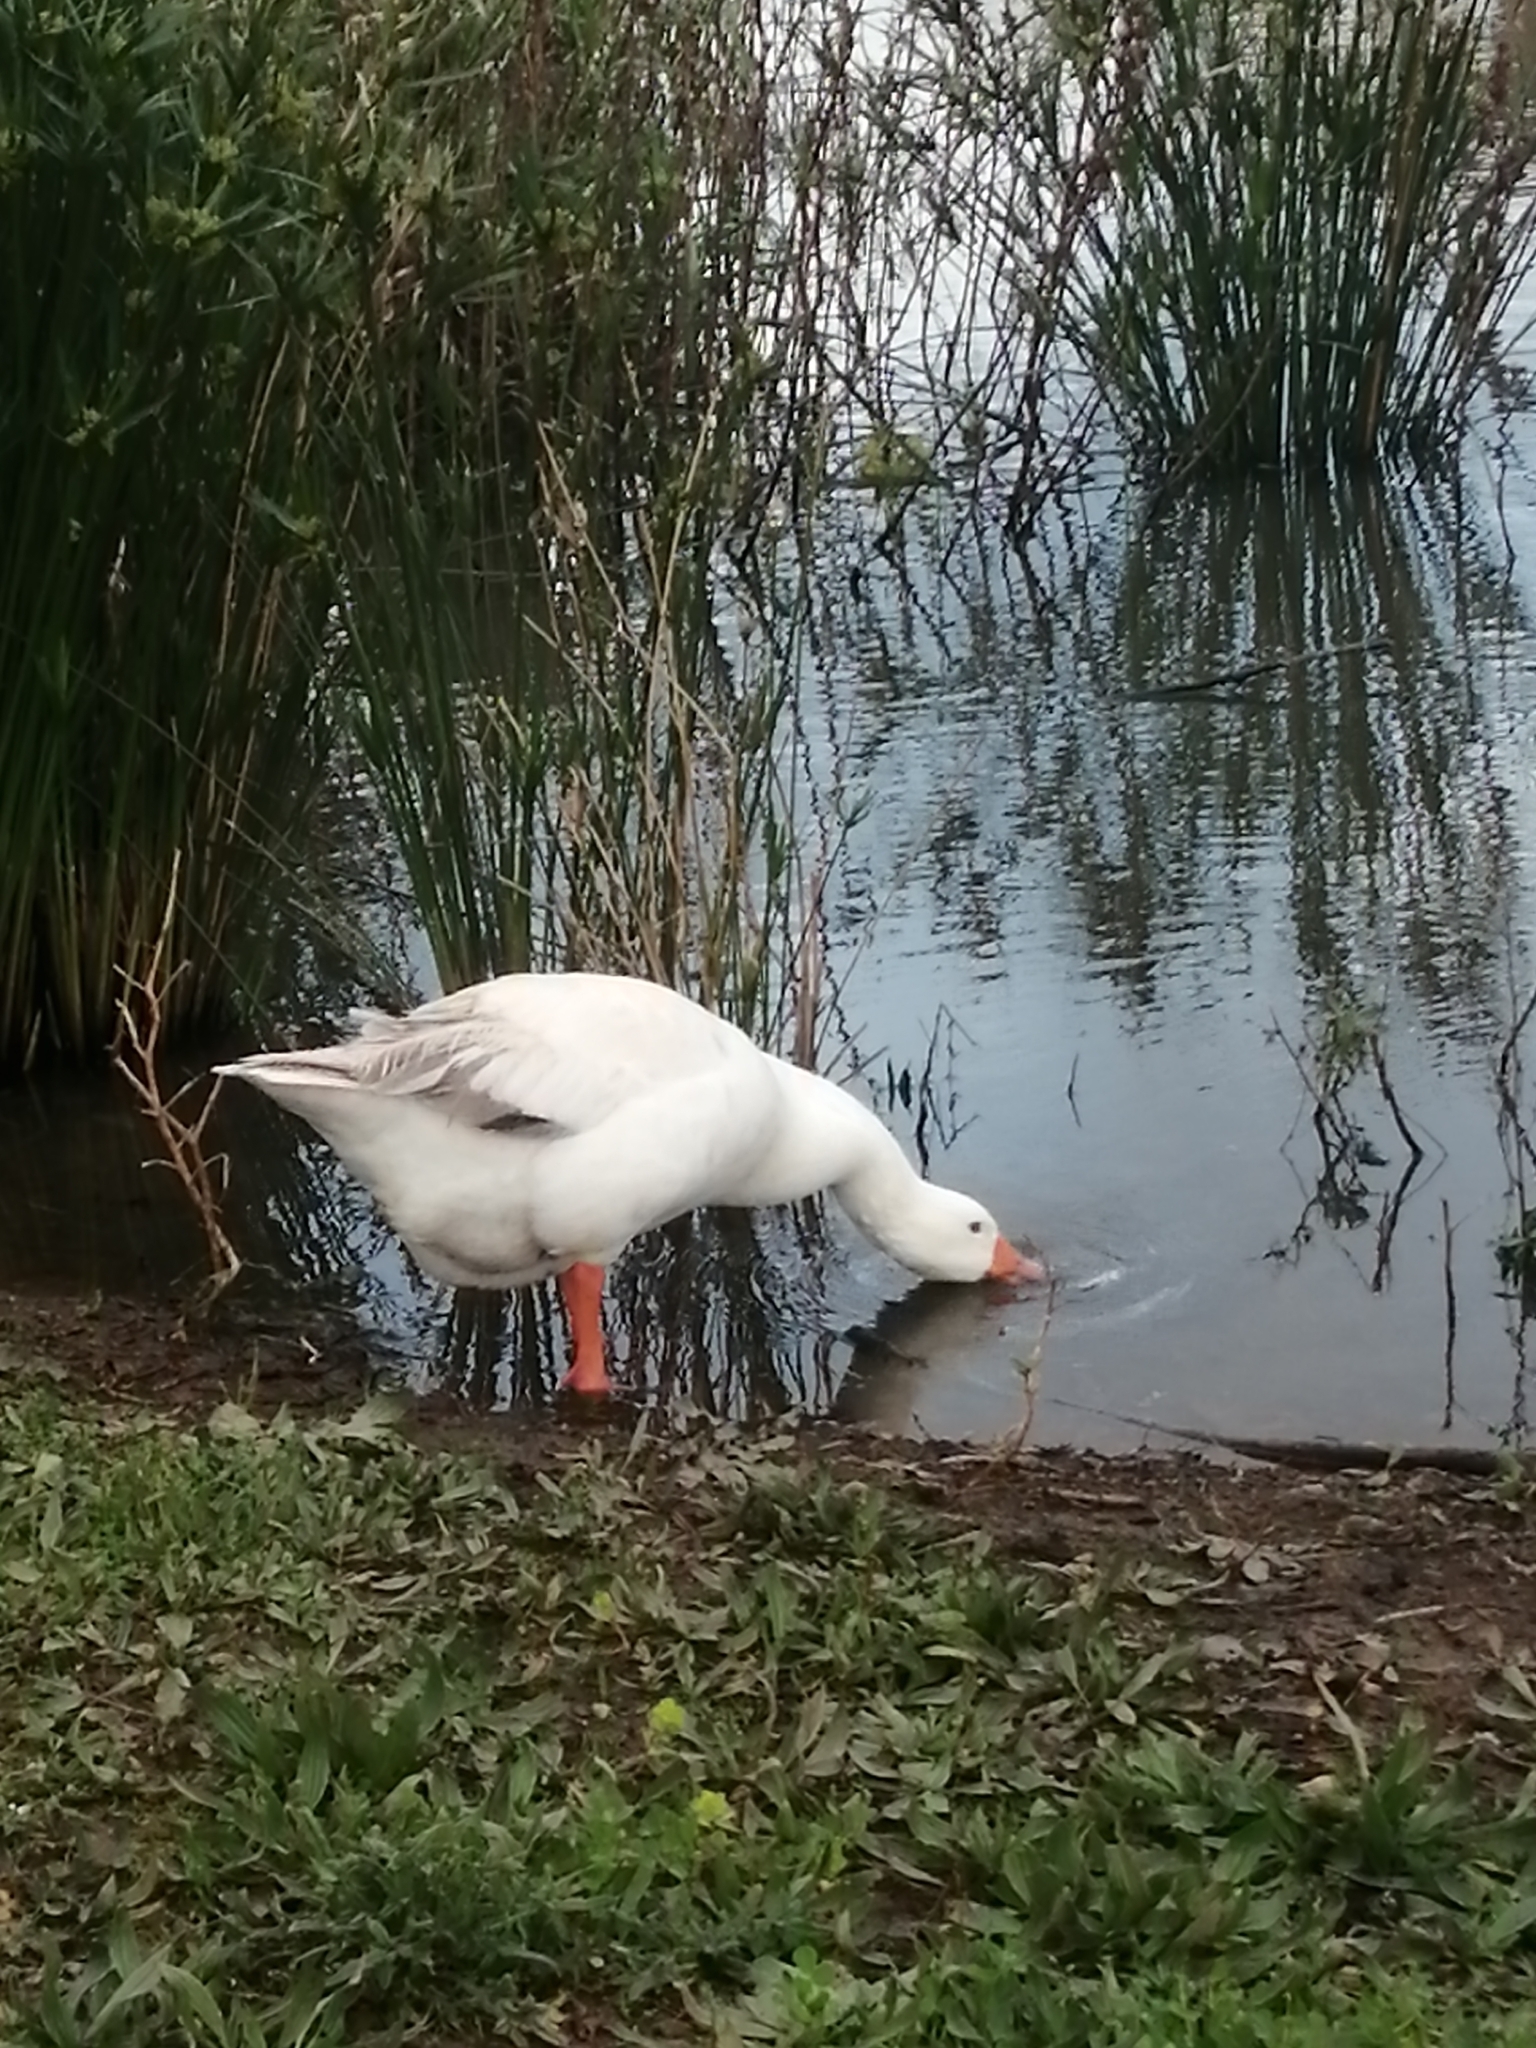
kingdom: Animalia
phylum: Chordata
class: Aves
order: Anseriformes
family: Anatidae
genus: Anser
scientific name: Anser anser
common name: Greylag goose
